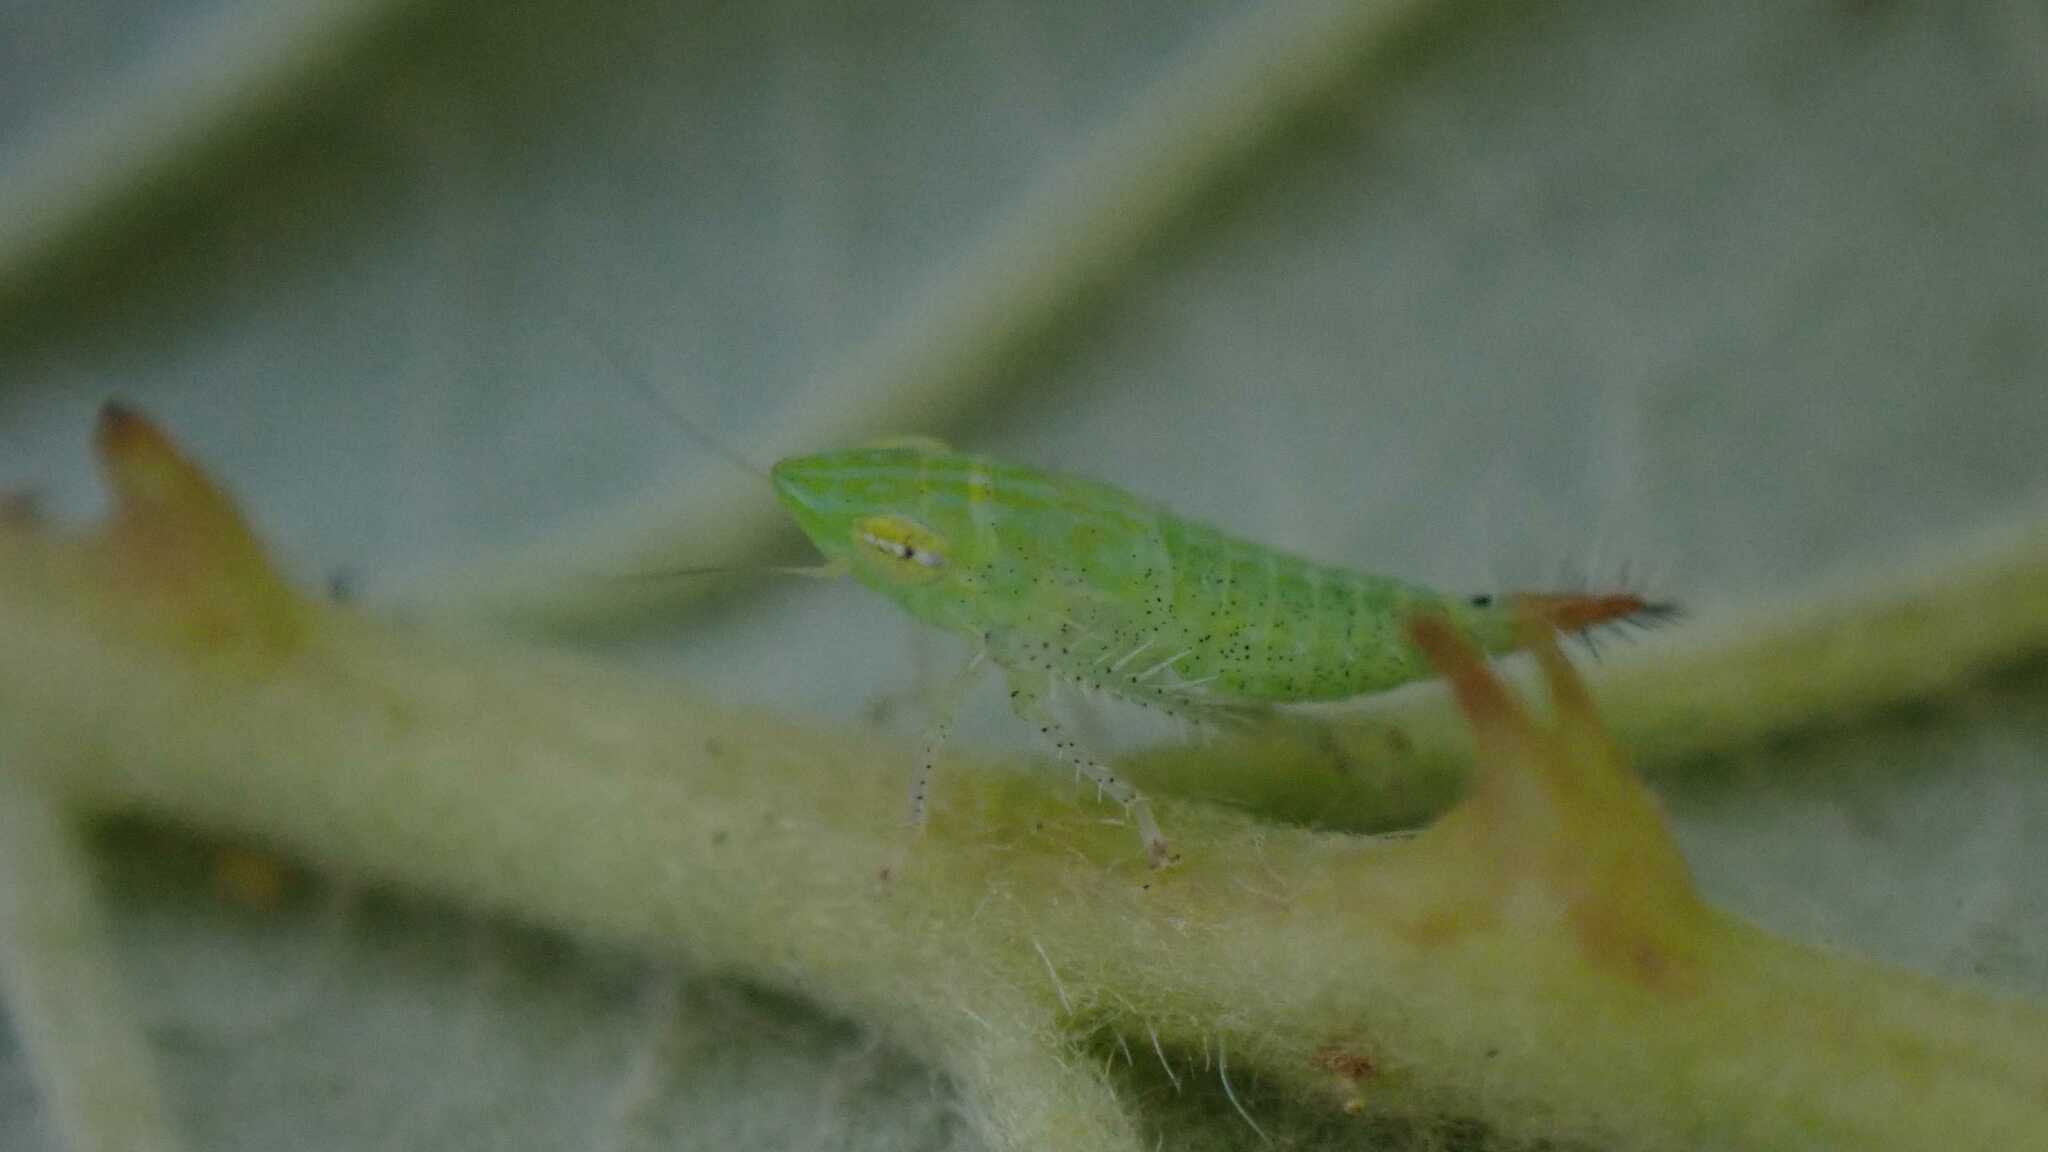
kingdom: Animalia
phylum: Arthropoda
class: Insecta
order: Hemiptera
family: Cicadellidae
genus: Fieberiella
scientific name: Fieberiella
